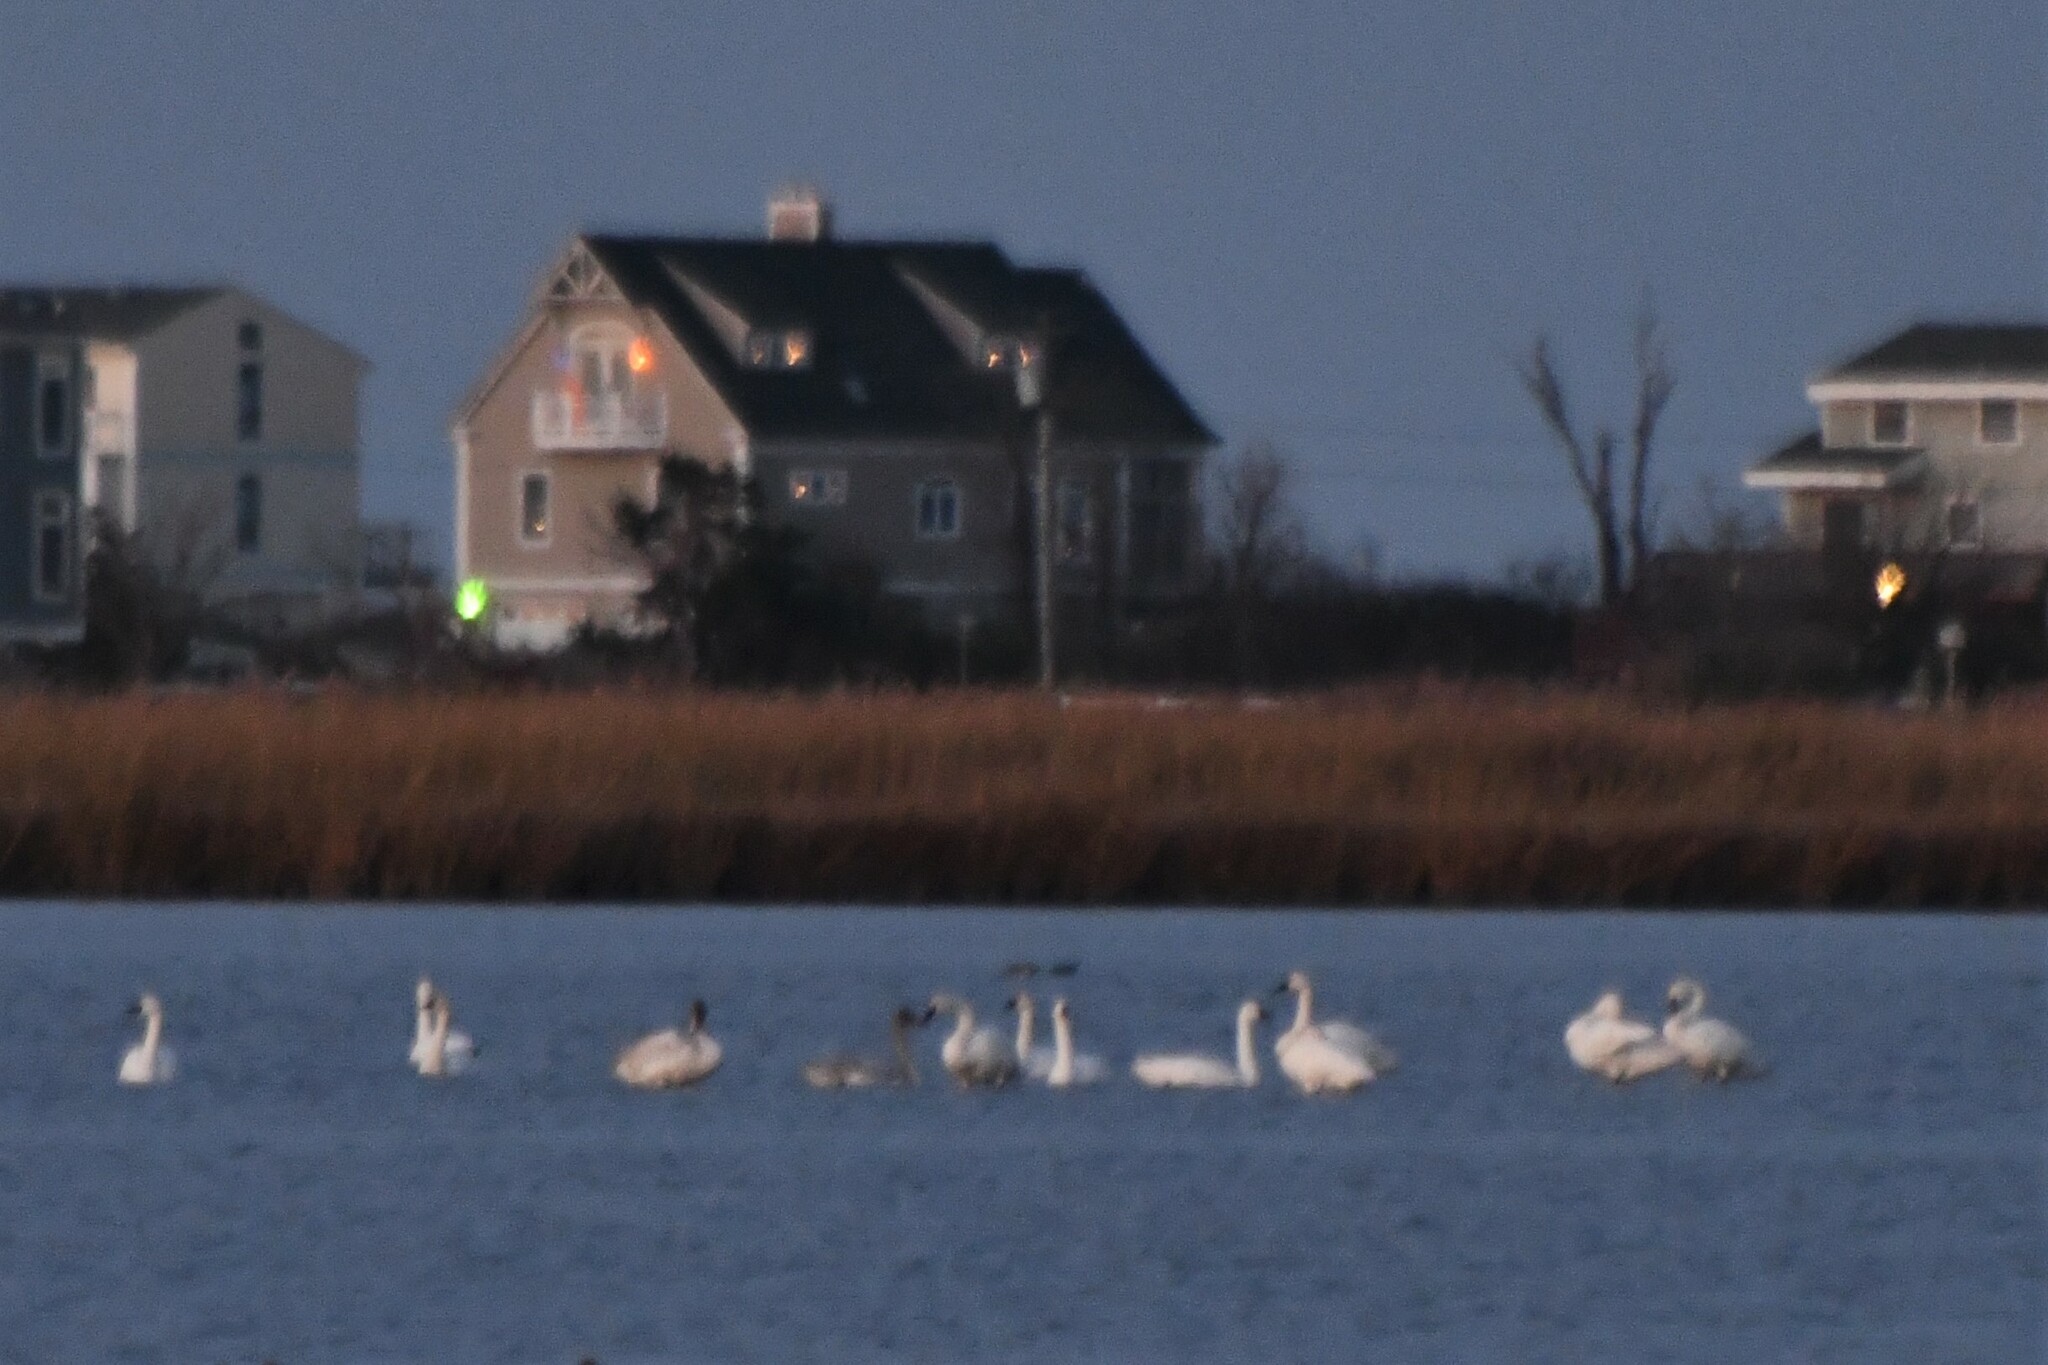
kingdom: Animalia
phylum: Chordata
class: Aves
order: Anseriformes
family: Anatidae
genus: Cygnus
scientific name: Cygnus columbianus
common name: Tundra swan
